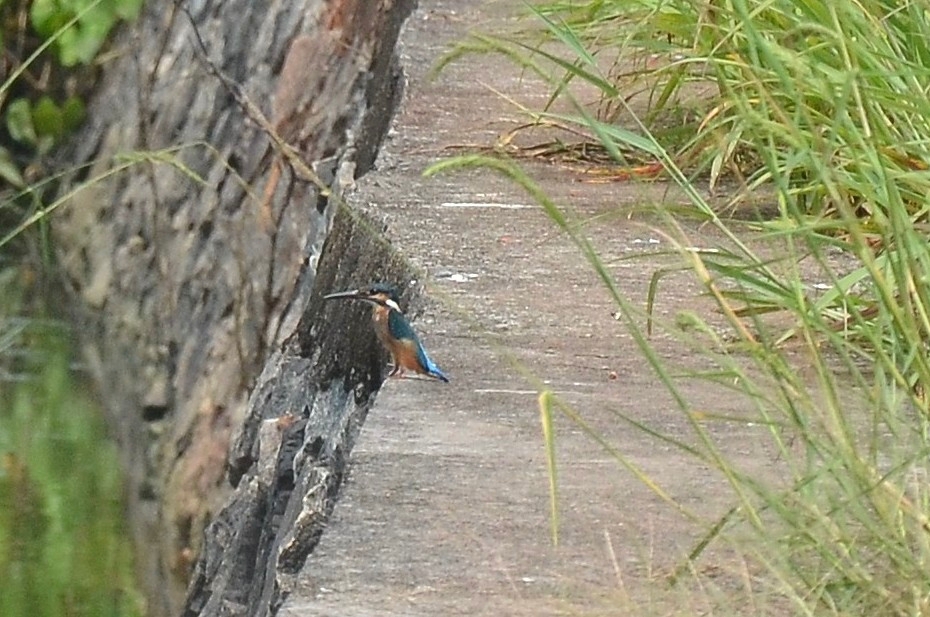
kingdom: Animalia
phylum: Chordata
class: Aves
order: Coraciiformes
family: Alcedinidae
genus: Alcedo
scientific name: Alcedo atthis
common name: Common kingfisher
